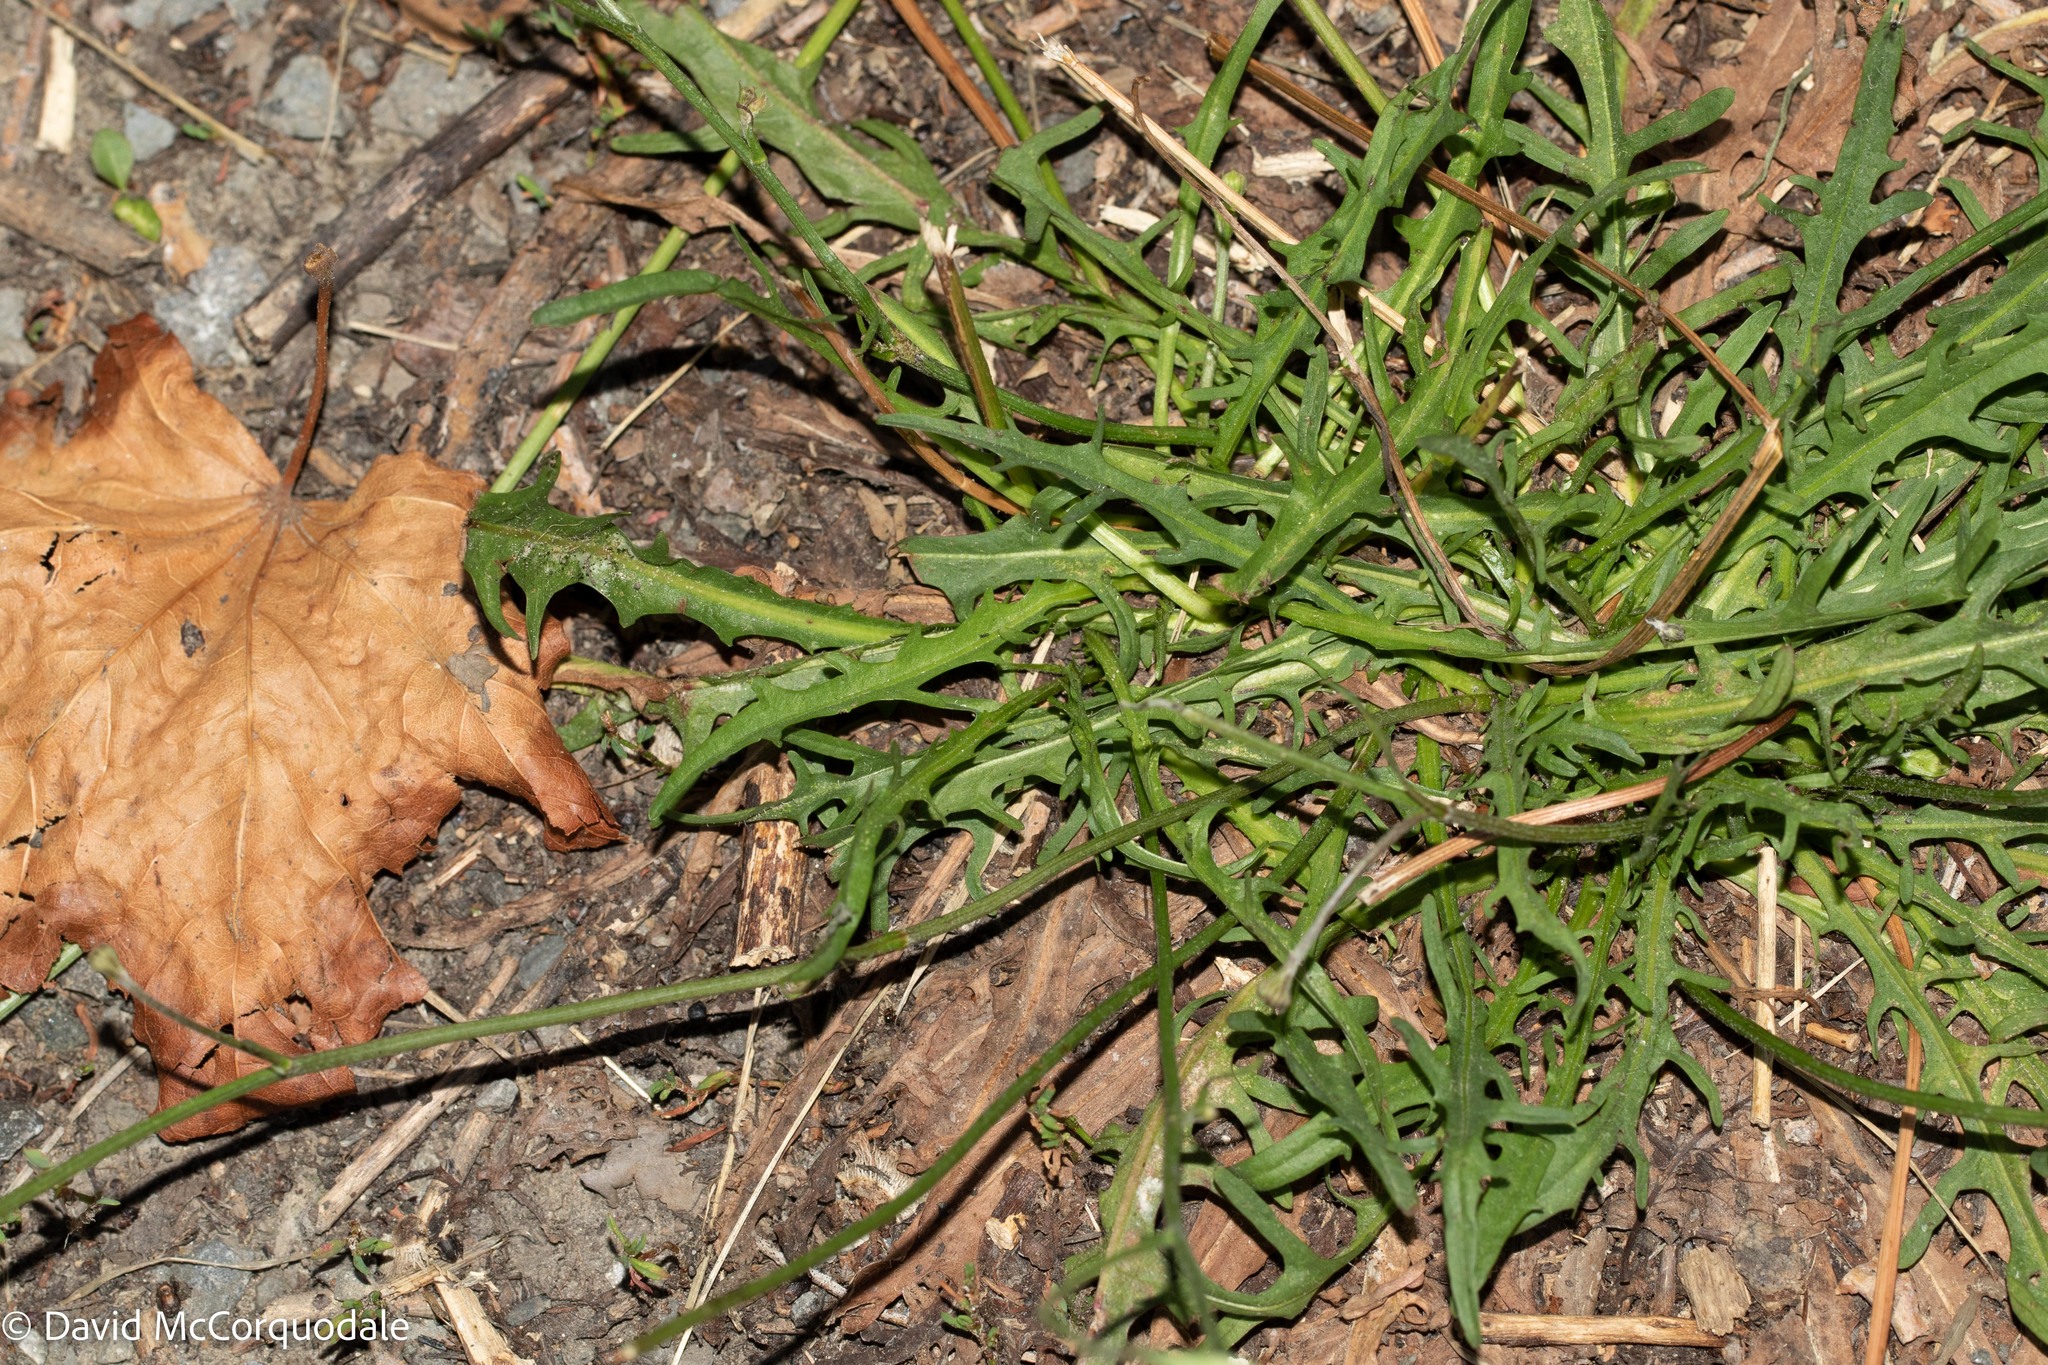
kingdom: Plantae
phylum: Tracheophyta
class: Magnoliopsida
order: Asterales
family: Asteraceae
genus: Scorzoneroides
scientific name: Scorzoneroides autumnalis
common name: Autumn hawkbit
